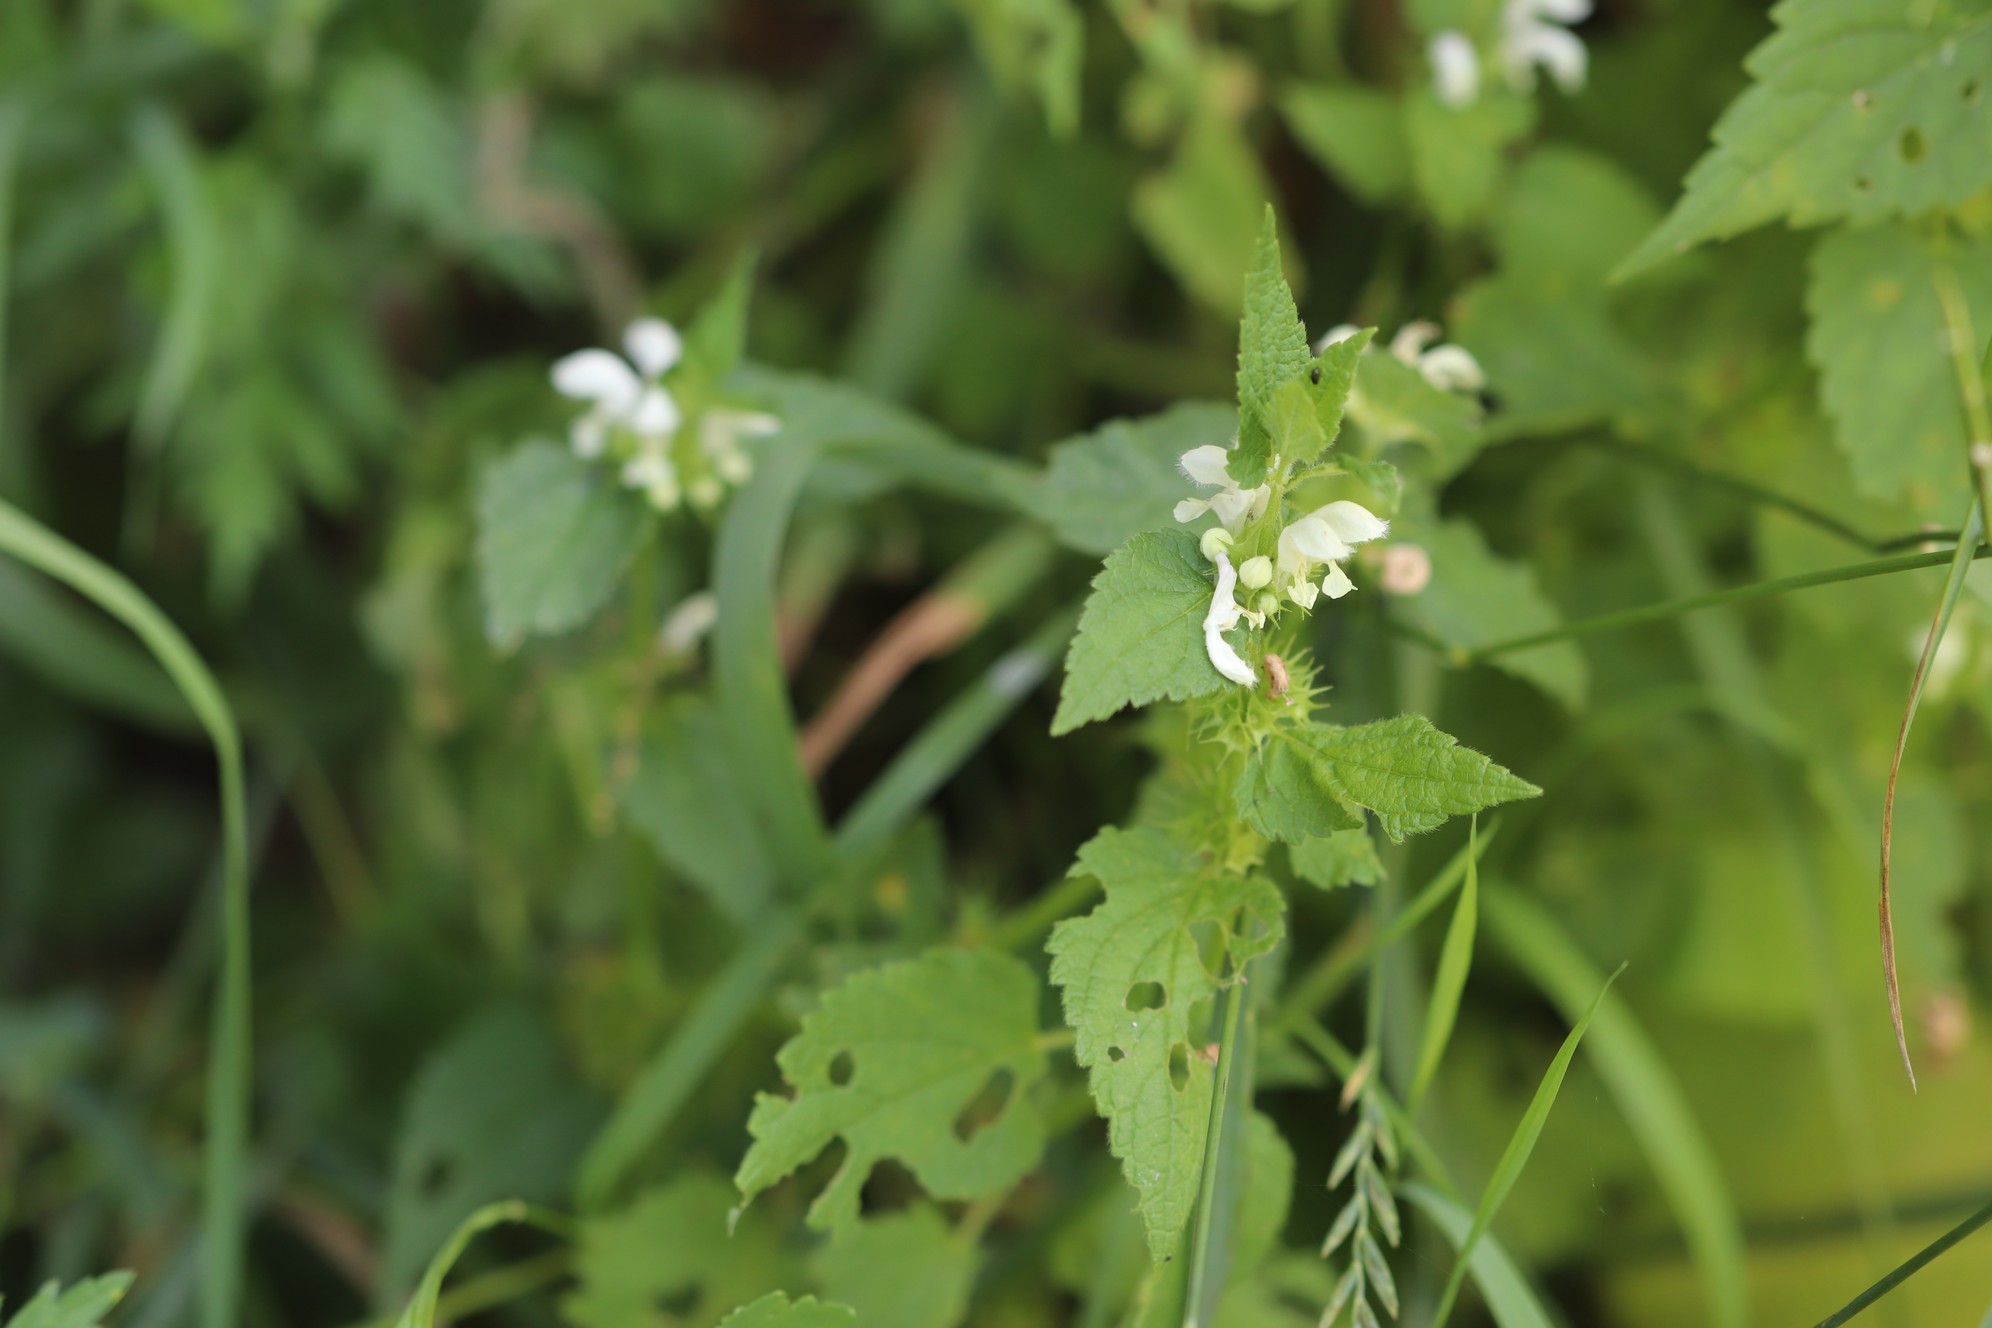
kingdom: Plantae
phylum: Tracheophyta
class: Magnoliopsida
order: Lamiales
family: Lamiaceae
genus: Lamium
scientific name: Lamium album
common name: White dead-nettle
